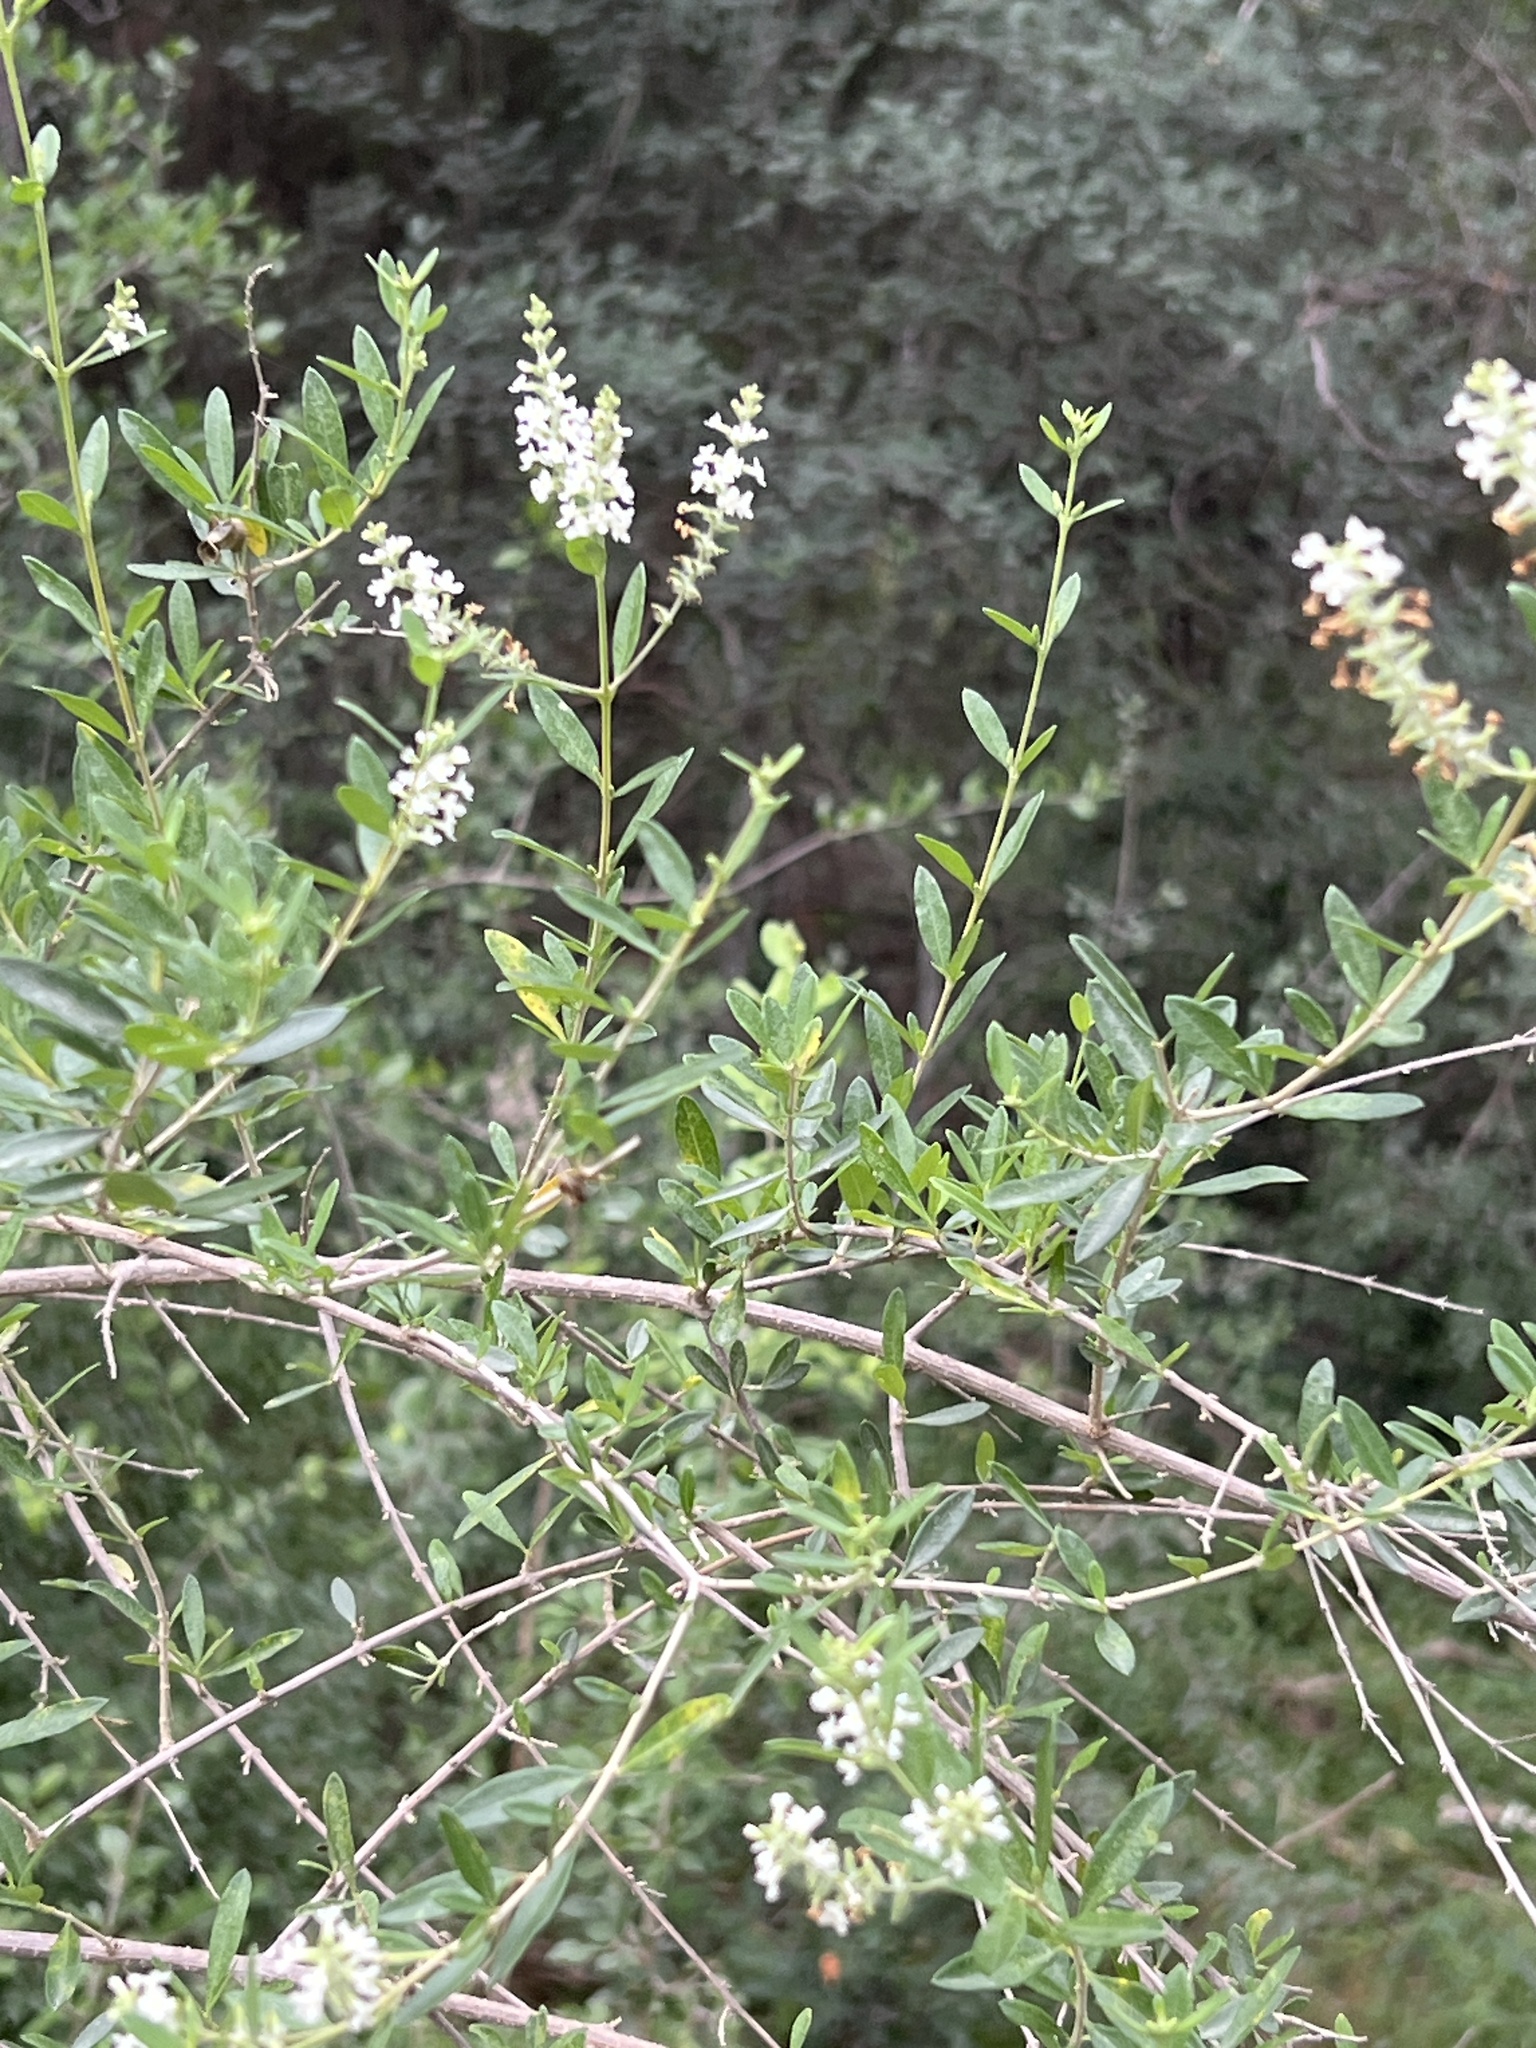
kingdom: Plantae
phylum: Tracheophyta
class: Magnoliopsida
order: Lamiales
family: Verbenaceae
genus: Aloysia
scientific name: Aloysia gratissima
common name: Common bee-brush
